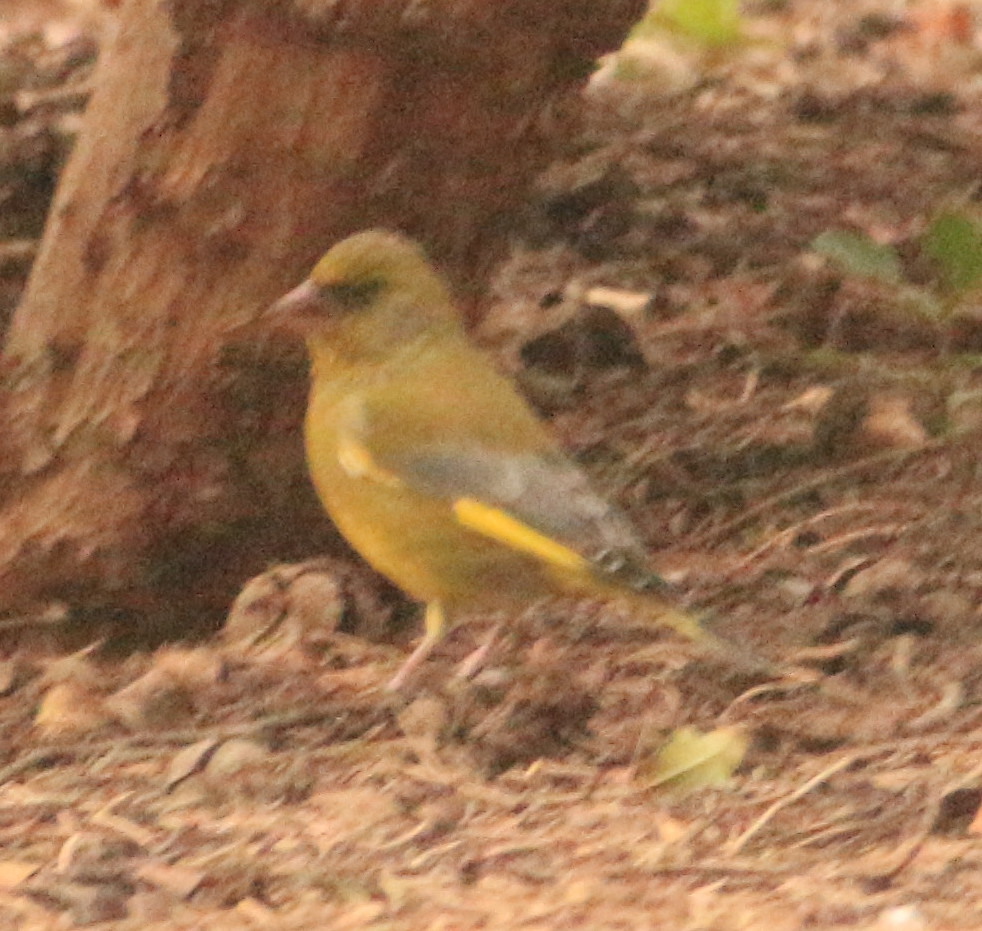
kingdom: Plantae
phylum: Tracheophyta
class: Liliopsida
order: Poales
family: Poaceae
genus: Chloris
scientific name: Chloris chloris
